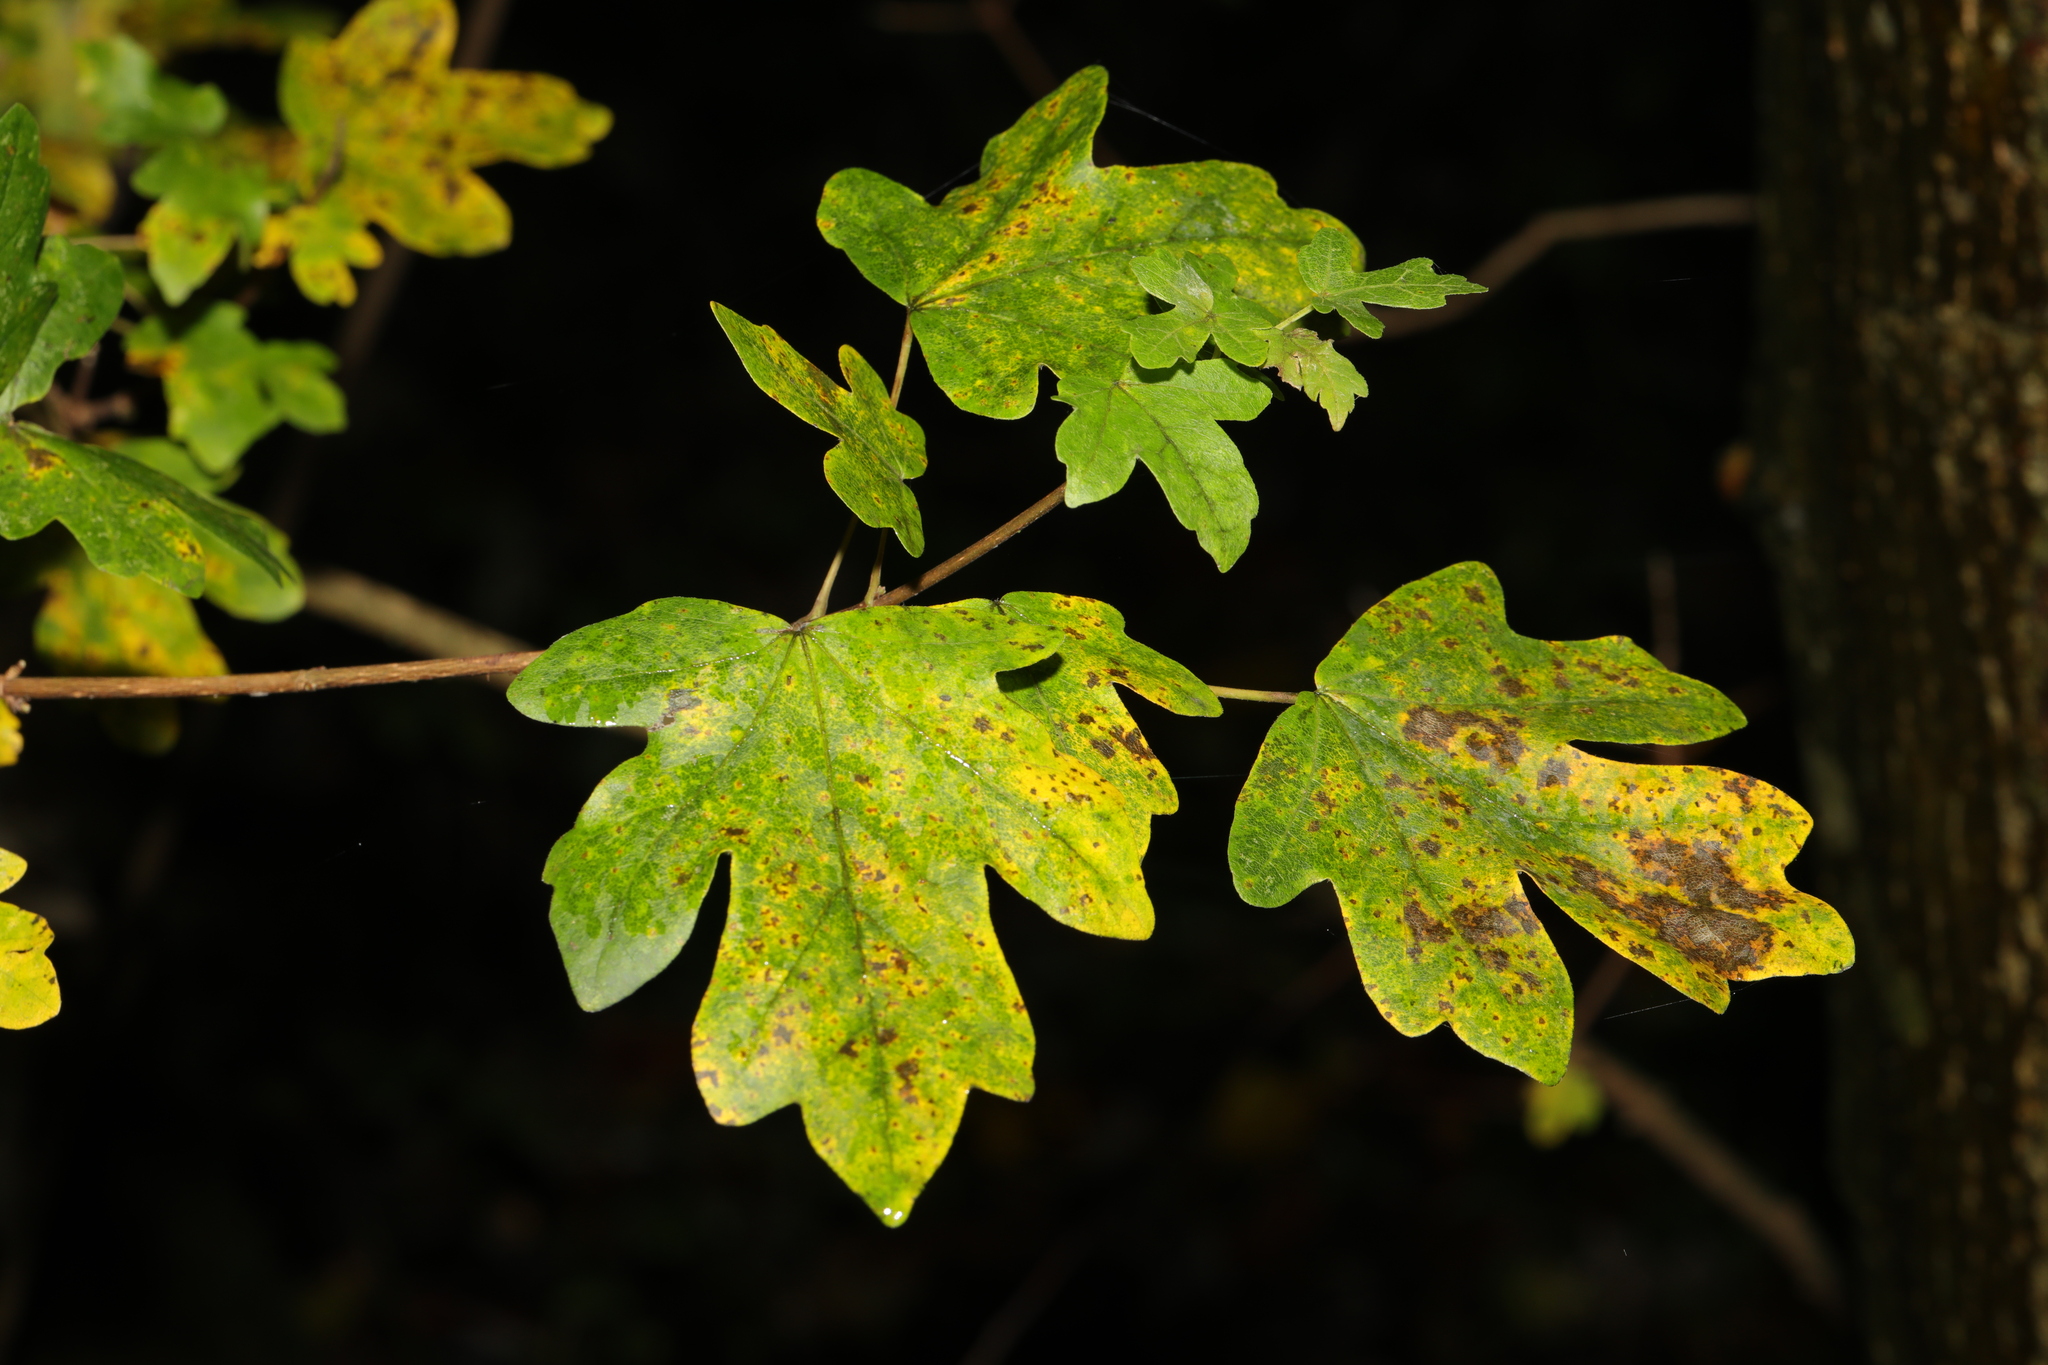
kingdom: Plantae
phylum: Tracheophyta
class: Magnoliopsida
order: Sapindales
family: Sapindaceae
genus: Acer
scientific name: Acer campestre
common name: Field maple
